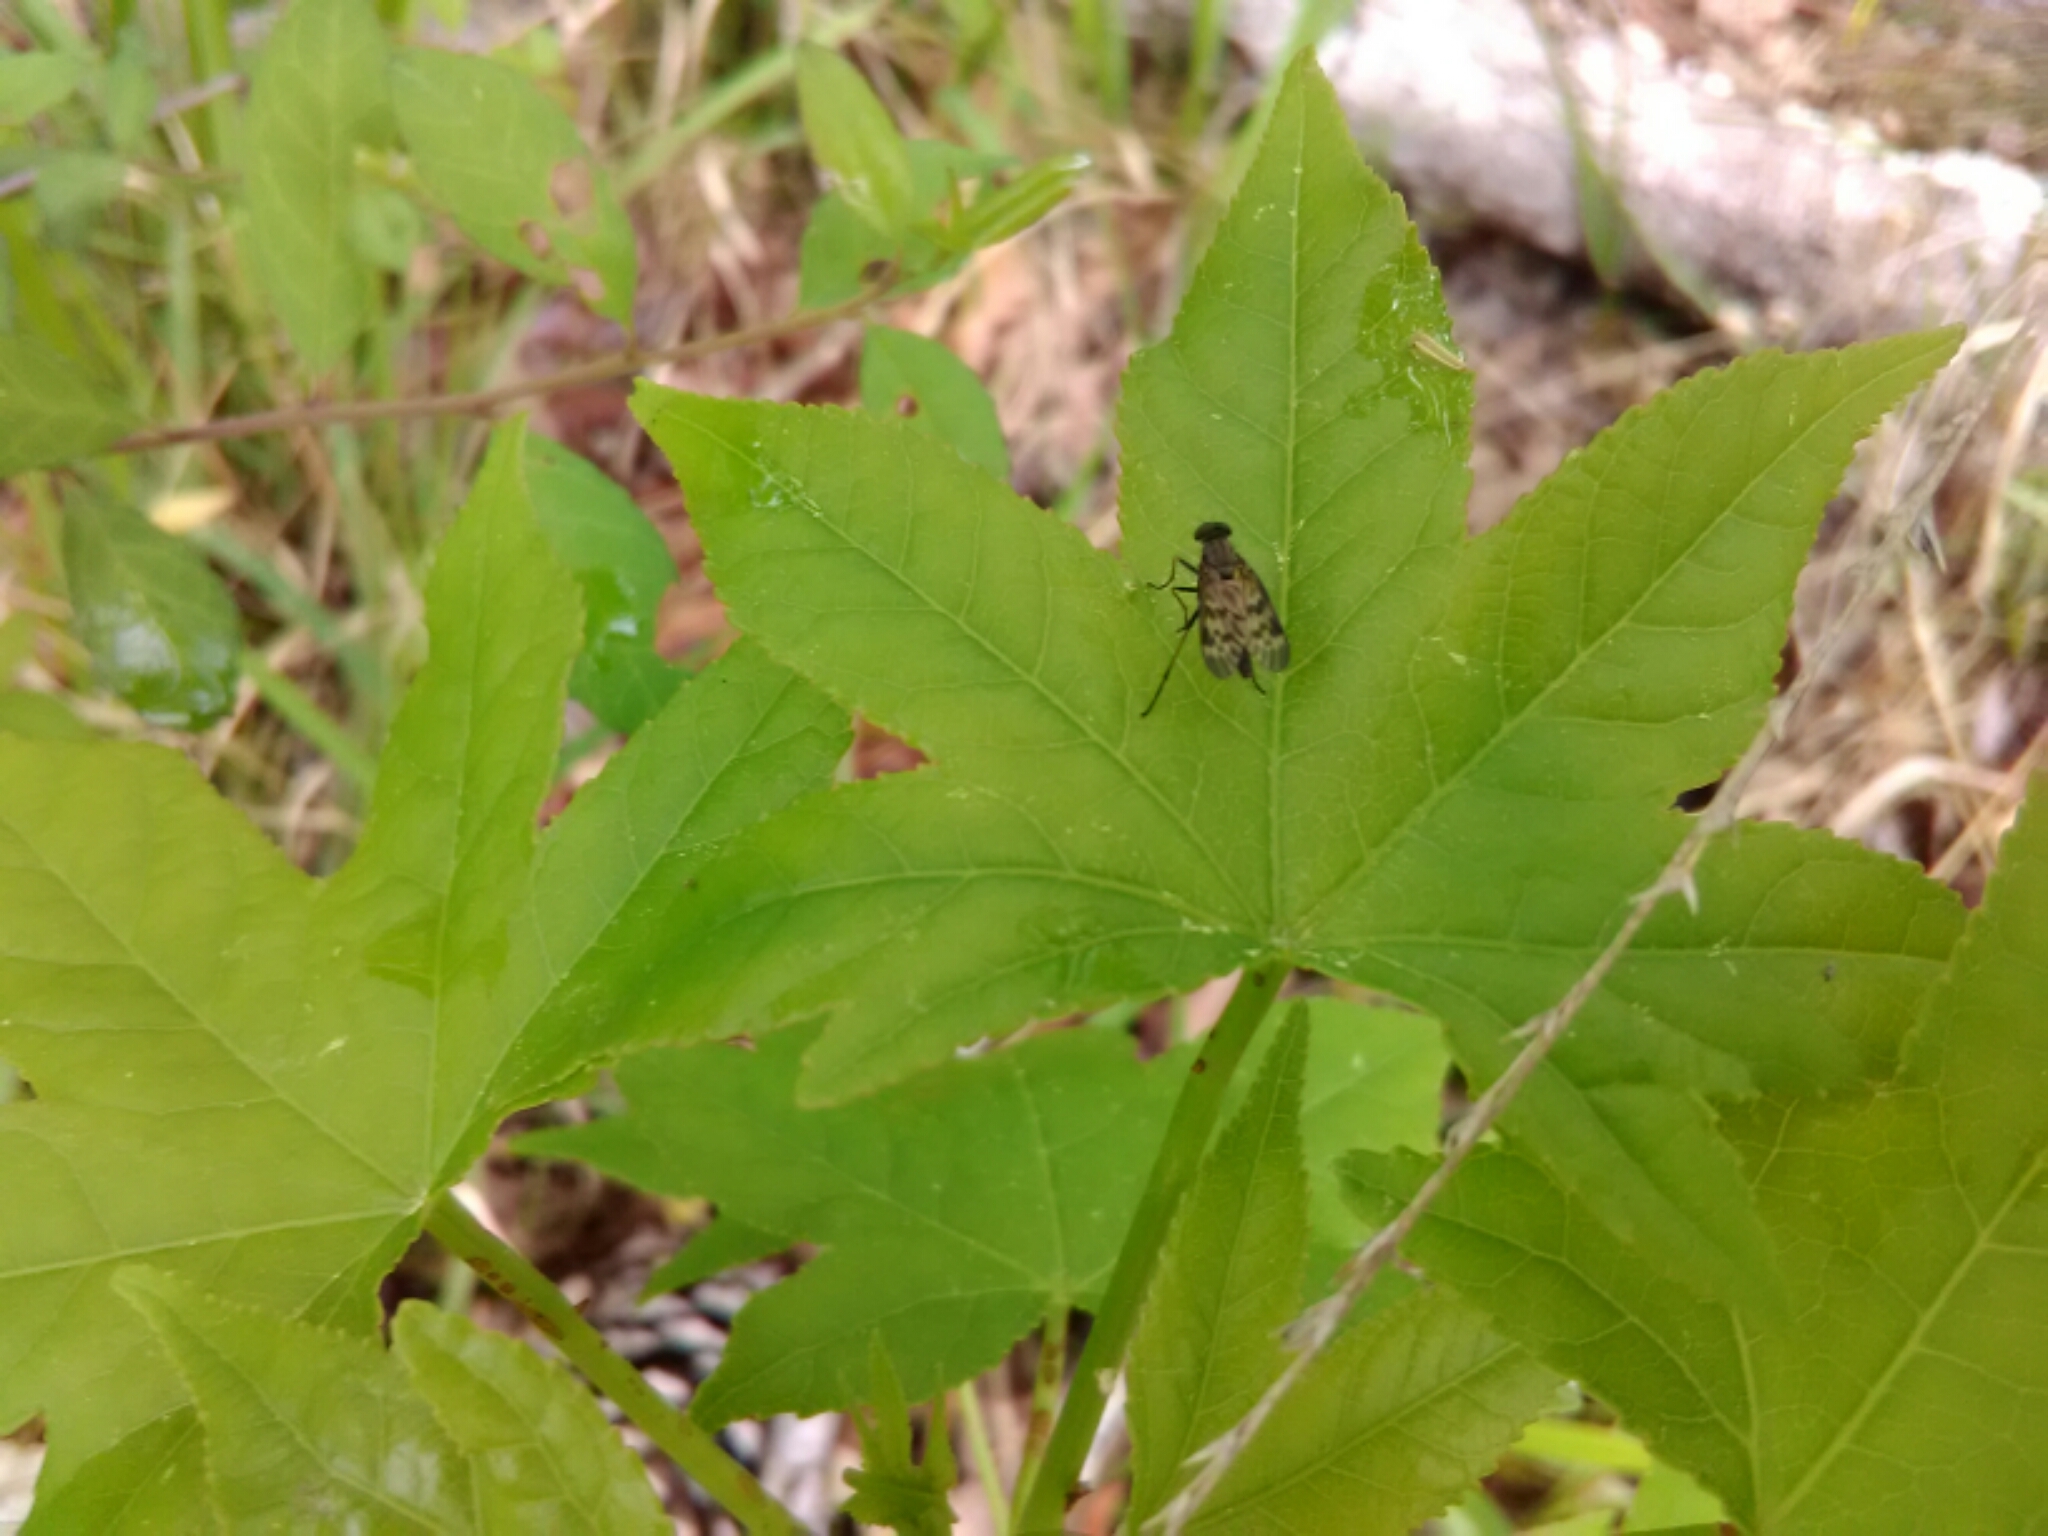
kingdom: Animalia
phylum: Arthropoda
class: Insecta
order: Diptera
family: Rhagionidae
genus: Rhagio
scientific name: Rhagio punctipennis
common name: Lesser variegated snipe fly
